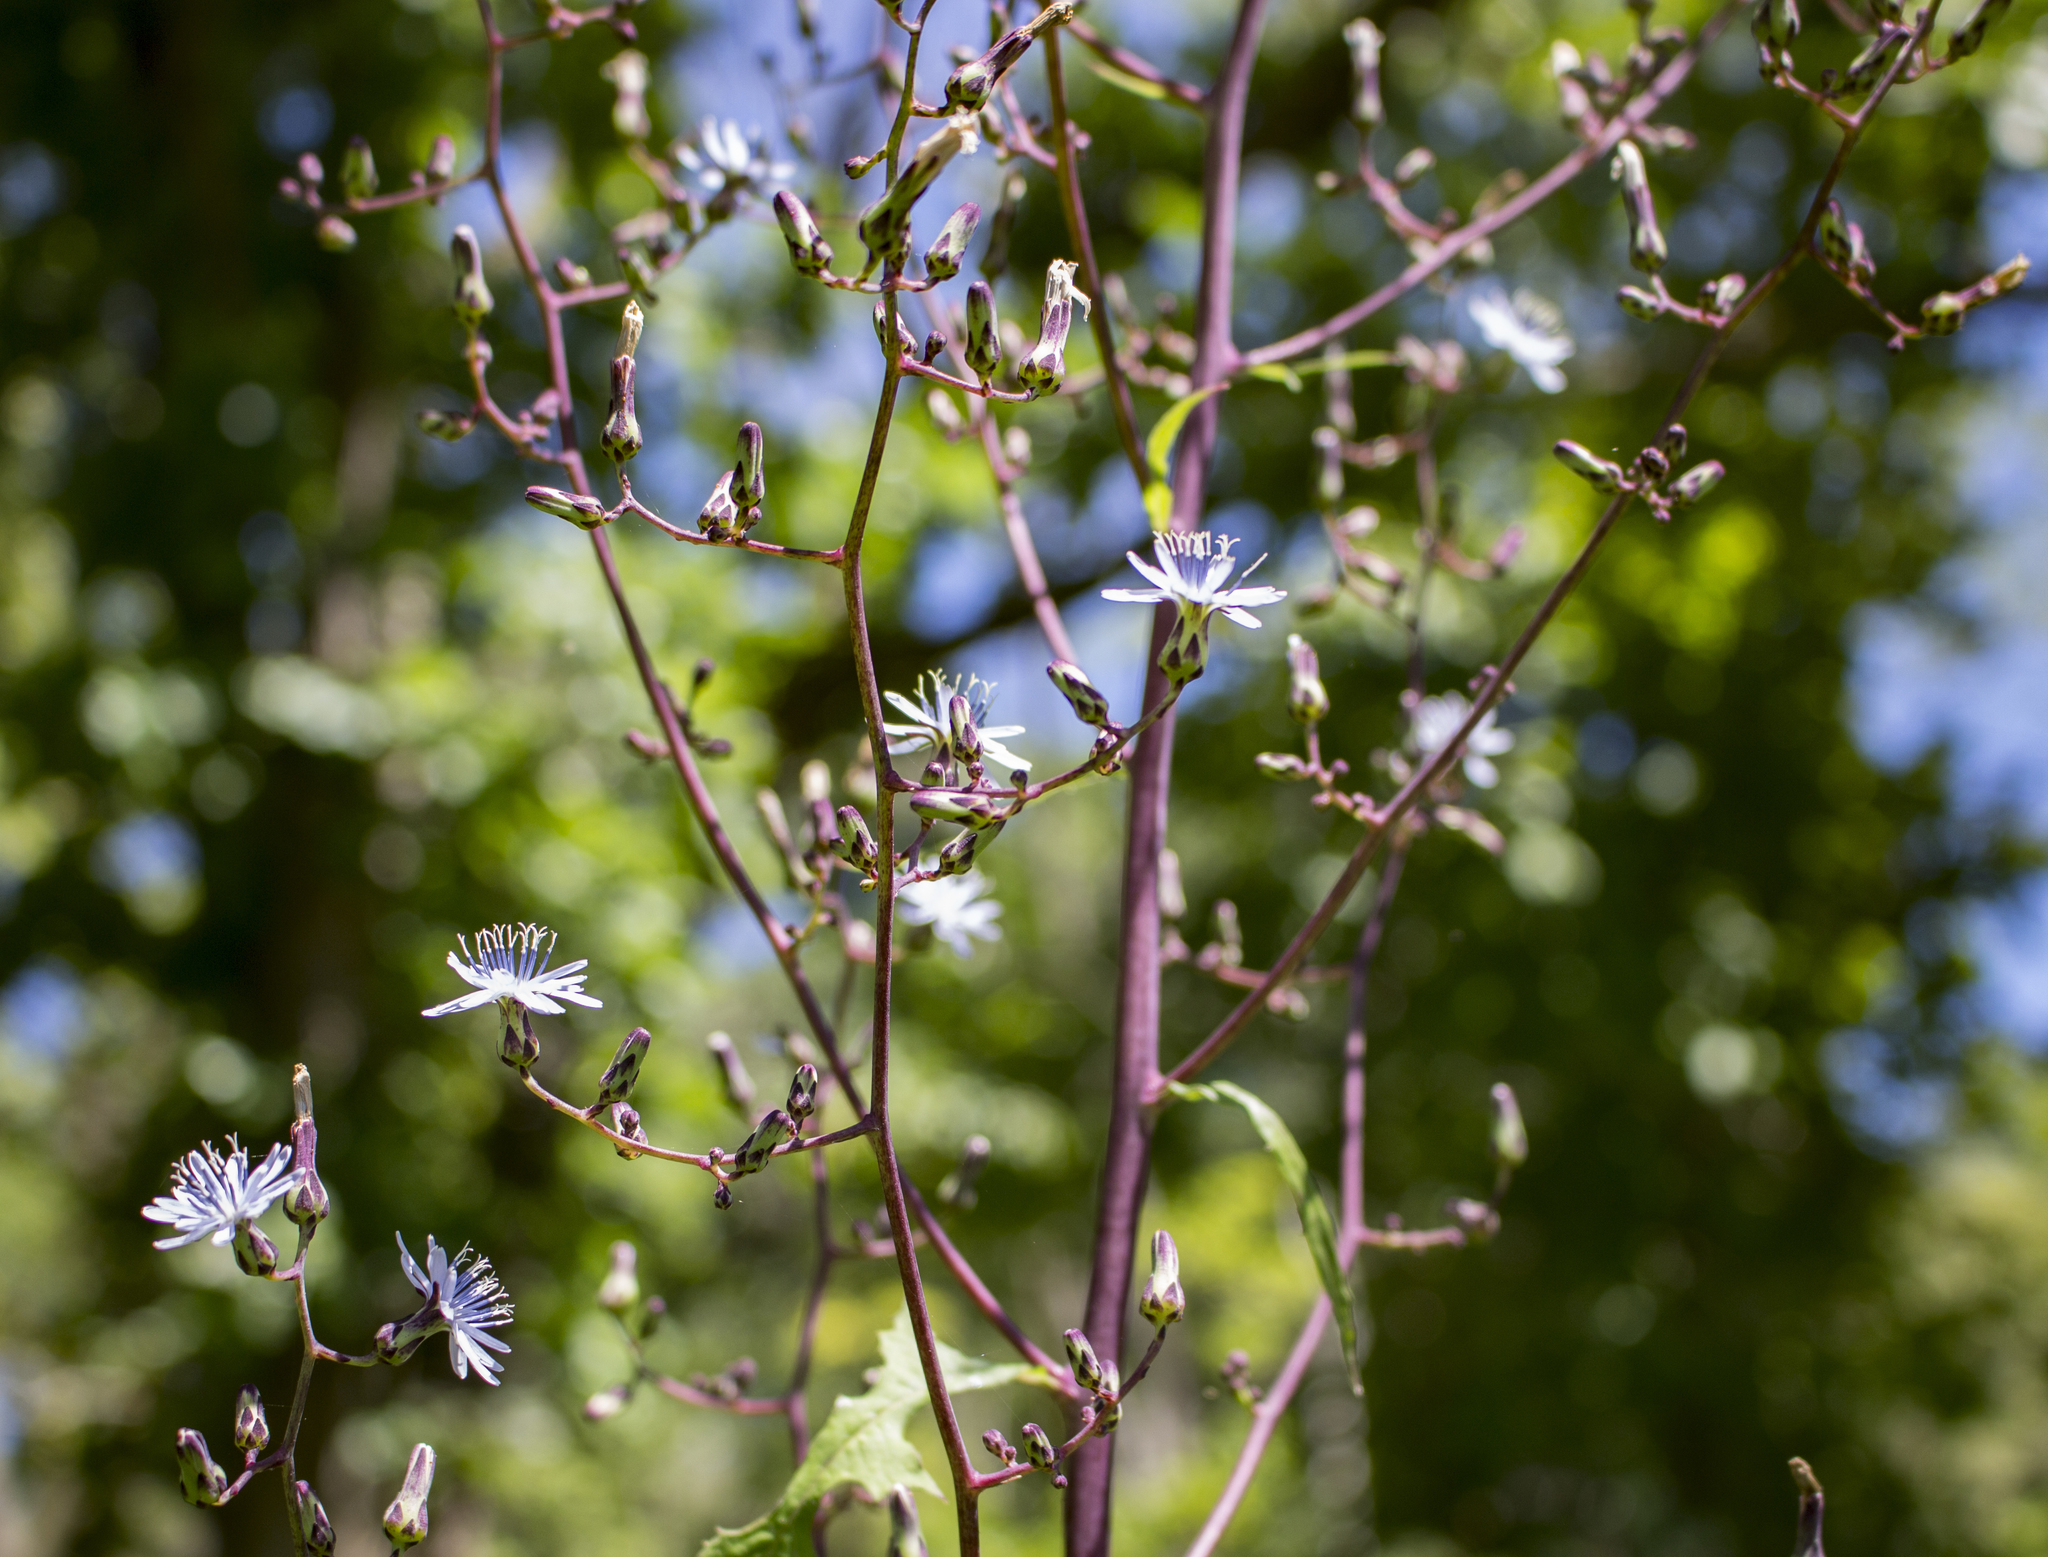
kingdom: Plantae
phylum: Tracheophyta
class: Magnoliopsida
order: Asterales
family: Asteraceae
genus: Lactuca
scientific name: Lactuca floridana
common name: Woodland lettuce
